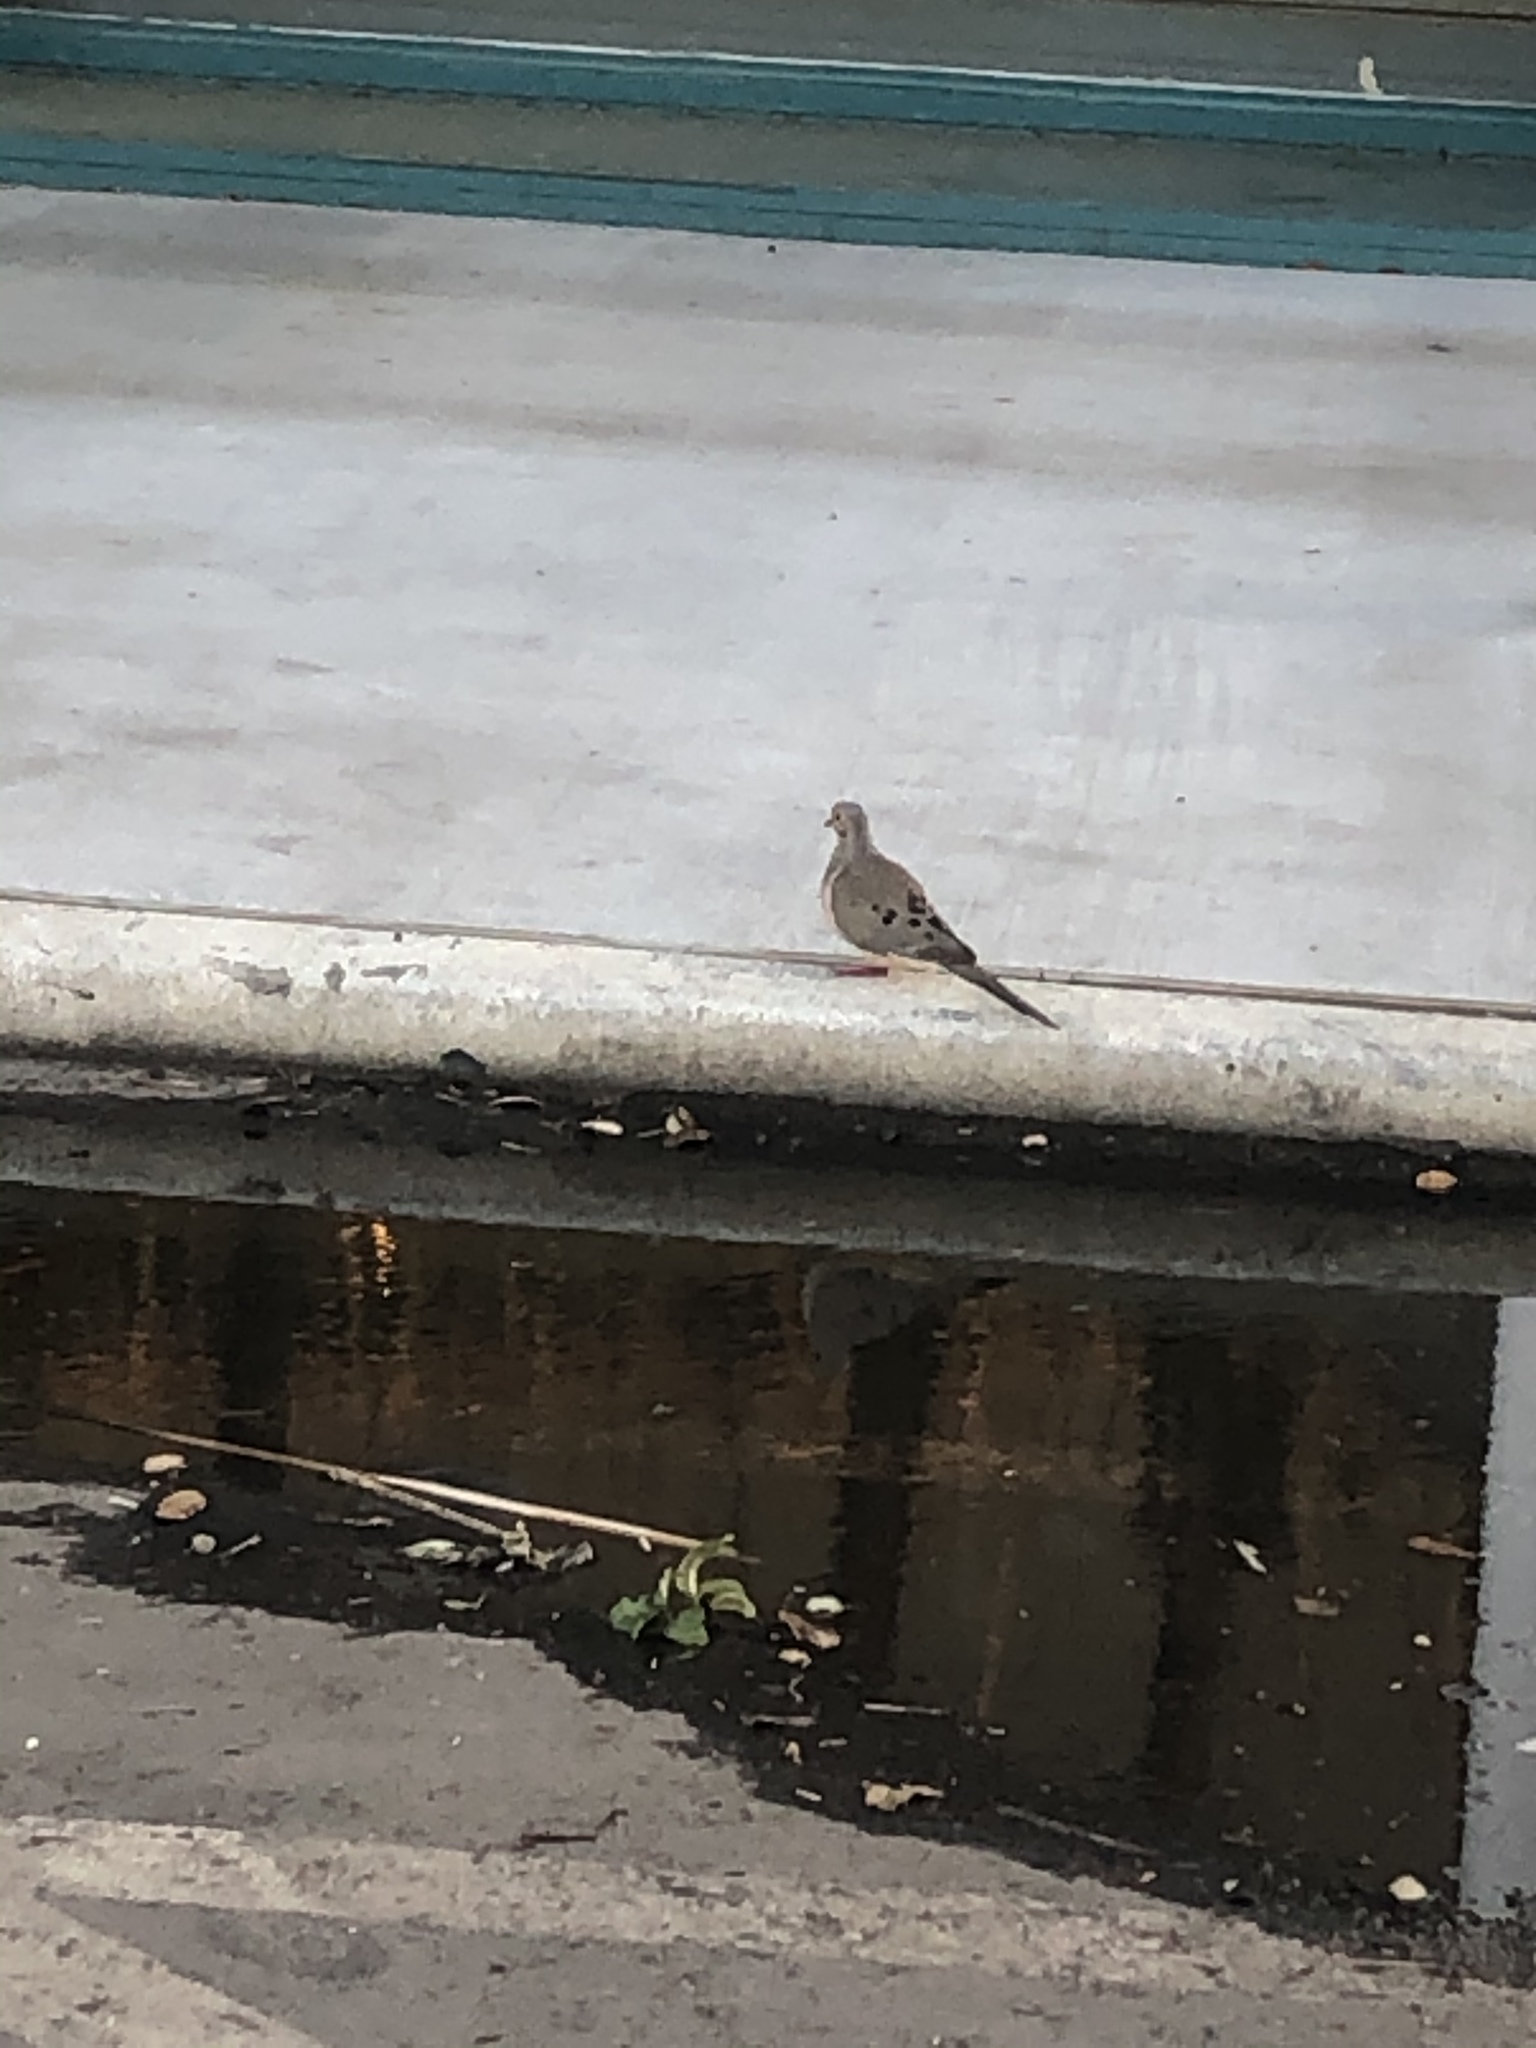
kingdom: Animalia
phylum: Chordata
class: Aves
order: Columbiformes
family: Columbidae
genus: Zenaida
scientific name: Zenaida macroura
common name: Mourning dove
